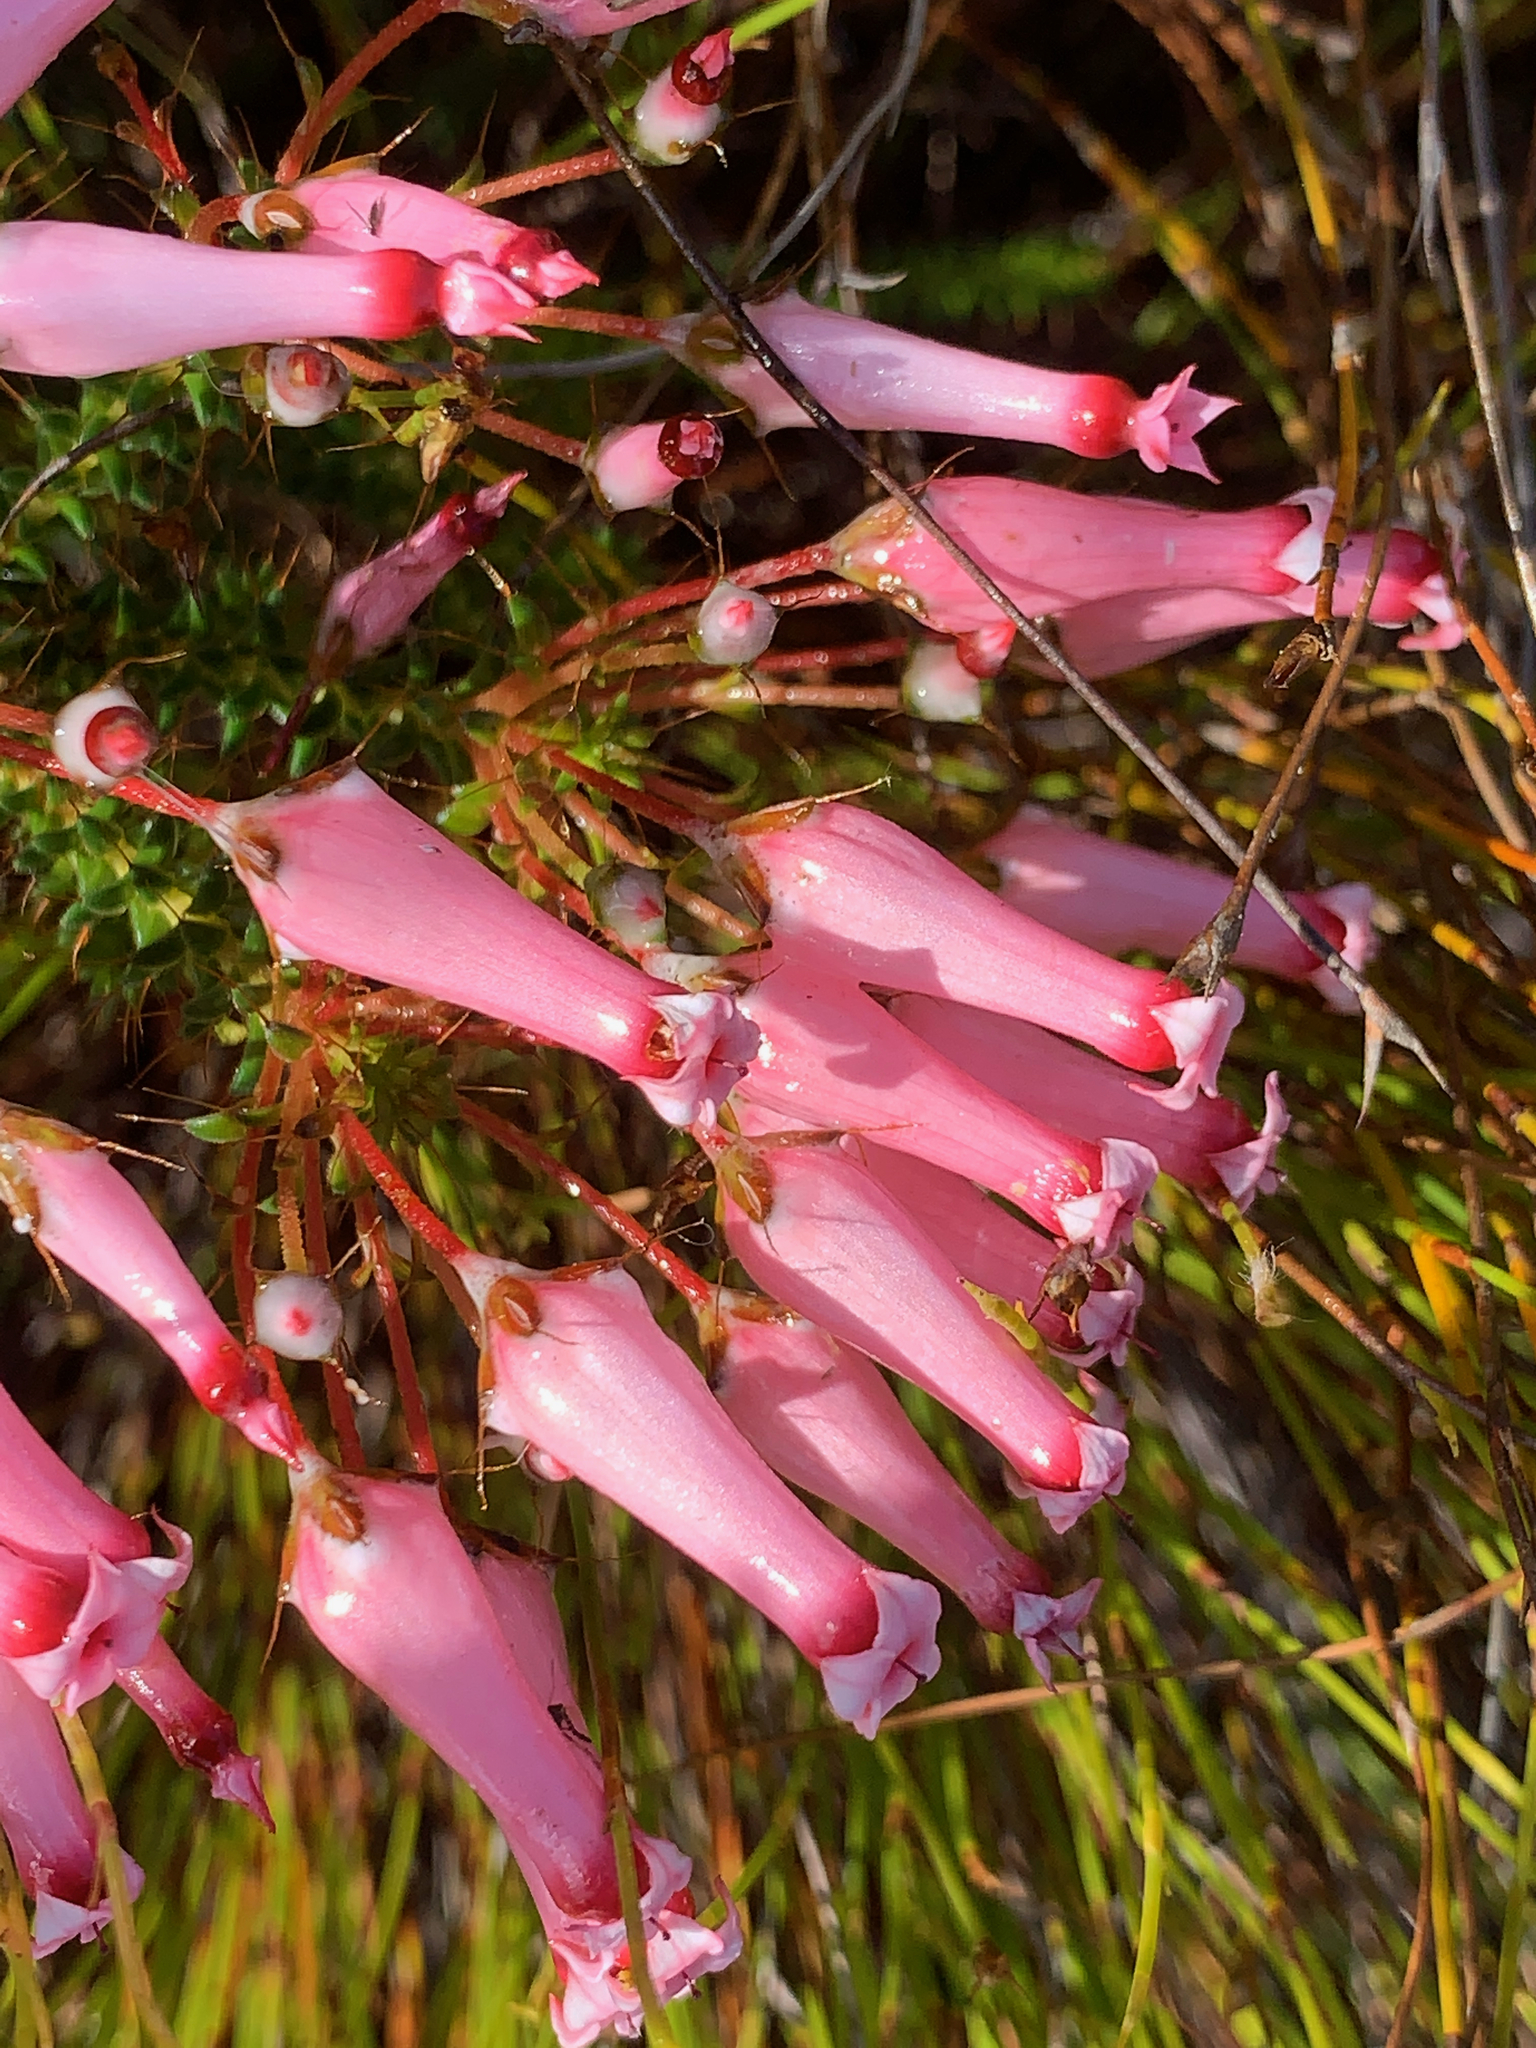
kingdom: Plantae
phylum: Tracheophyta
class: Magnoliopsida
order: Ericales
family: Ericaceae
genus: Erica
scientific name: Erica retorta
